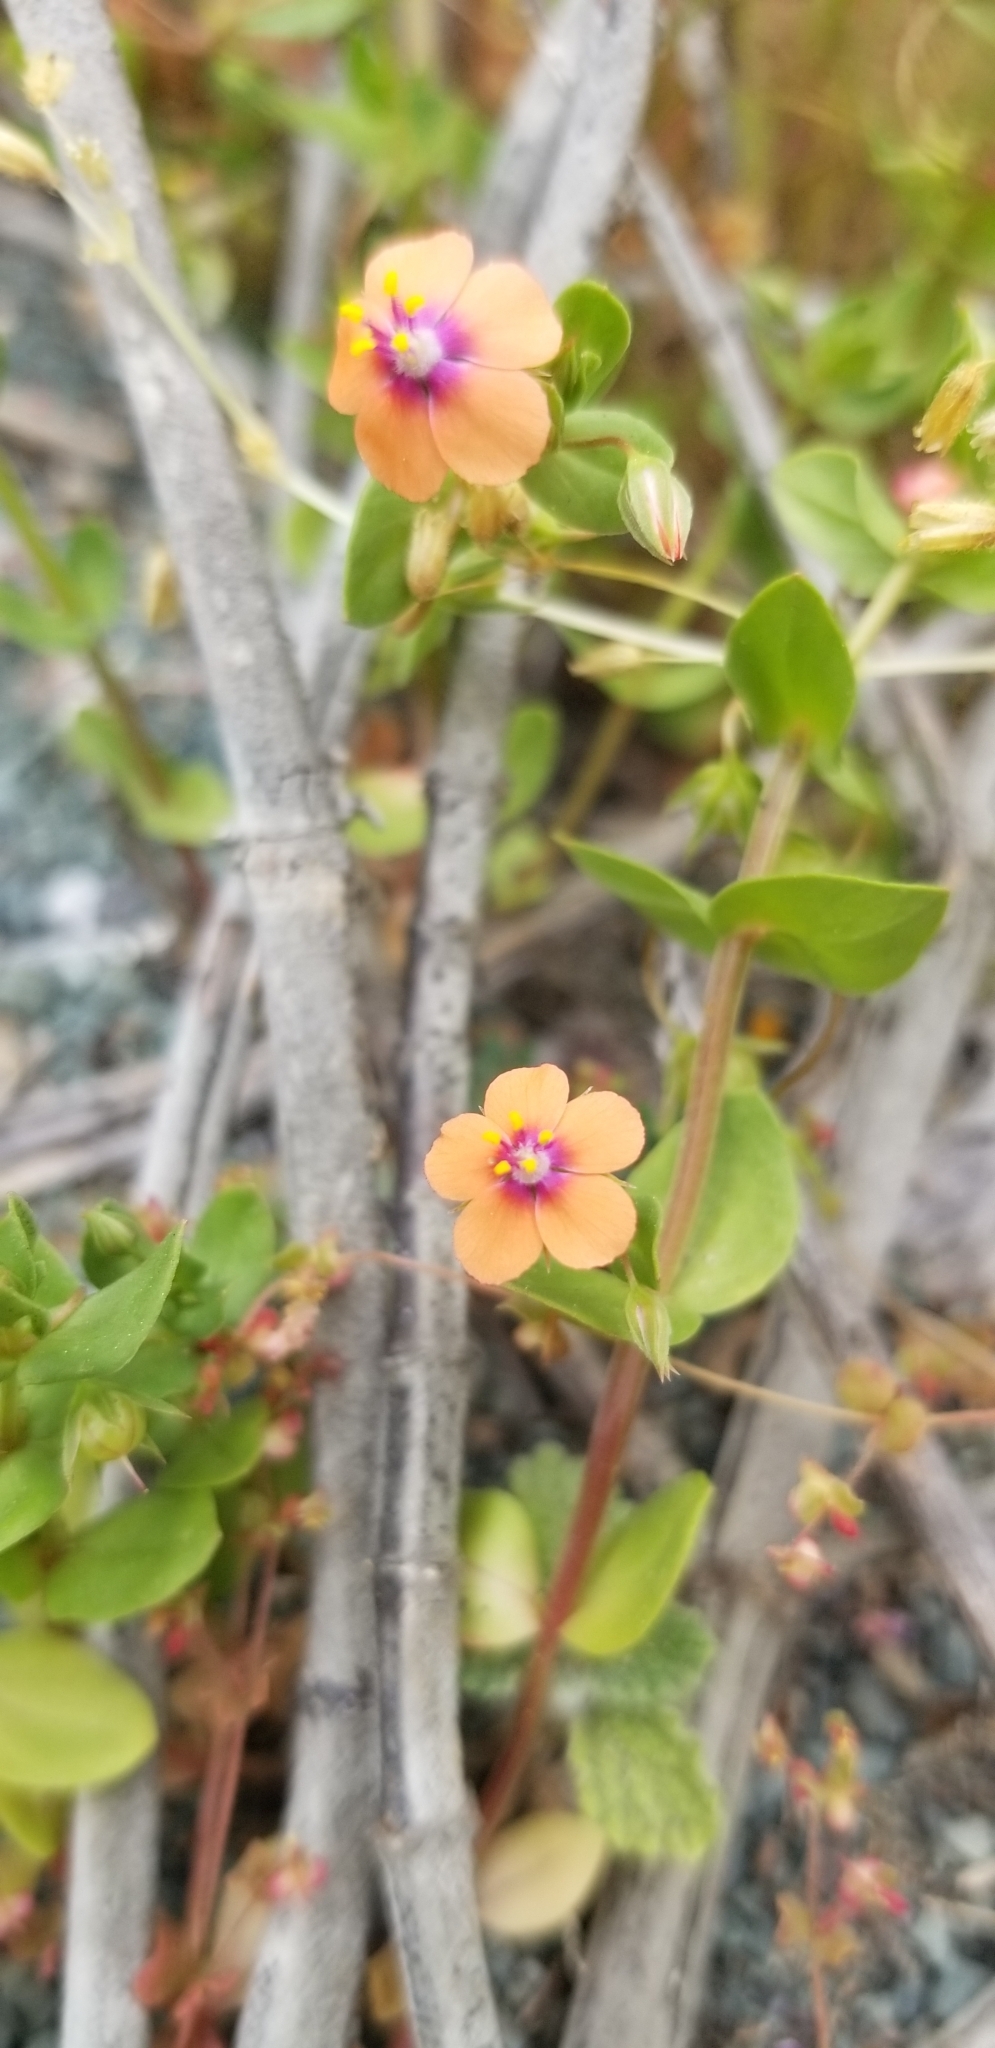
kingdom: Plantae
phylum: Tracheophyta
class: Magnoliopsida
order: Ericales
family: Primulaceae
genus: Lysimachia
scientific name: Lysimachia arvensis
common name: Scarlet pimpernel
